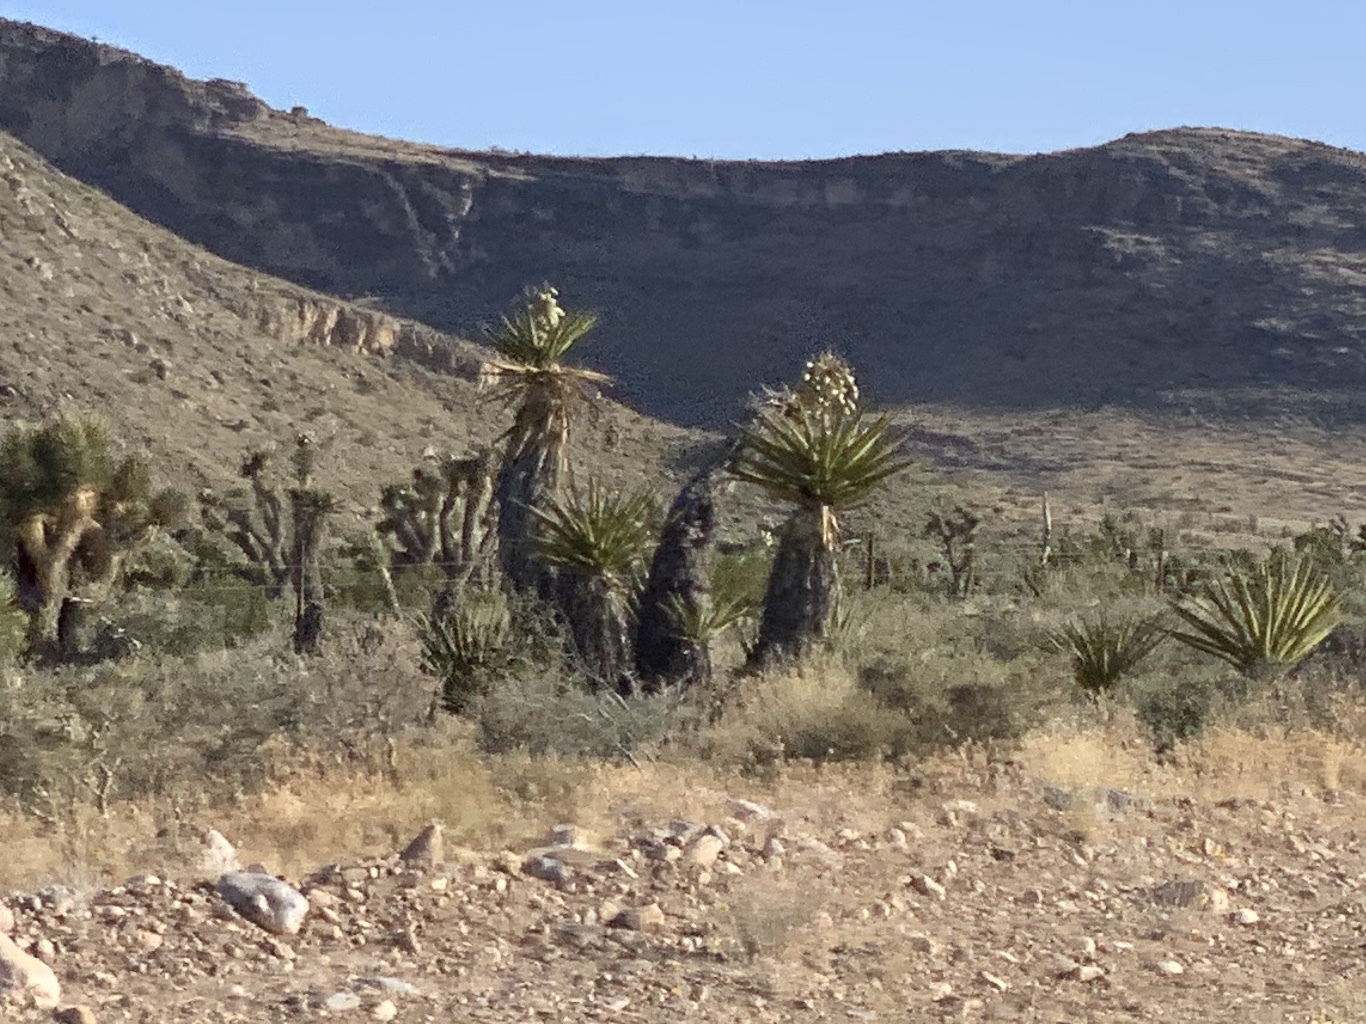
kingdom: Plantae
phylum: Tracheophyta
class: Liliopsida
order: Asparagales
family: Asparagaceae
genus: Yucca
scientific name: Yucca schidigera
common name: Mojave yucca
